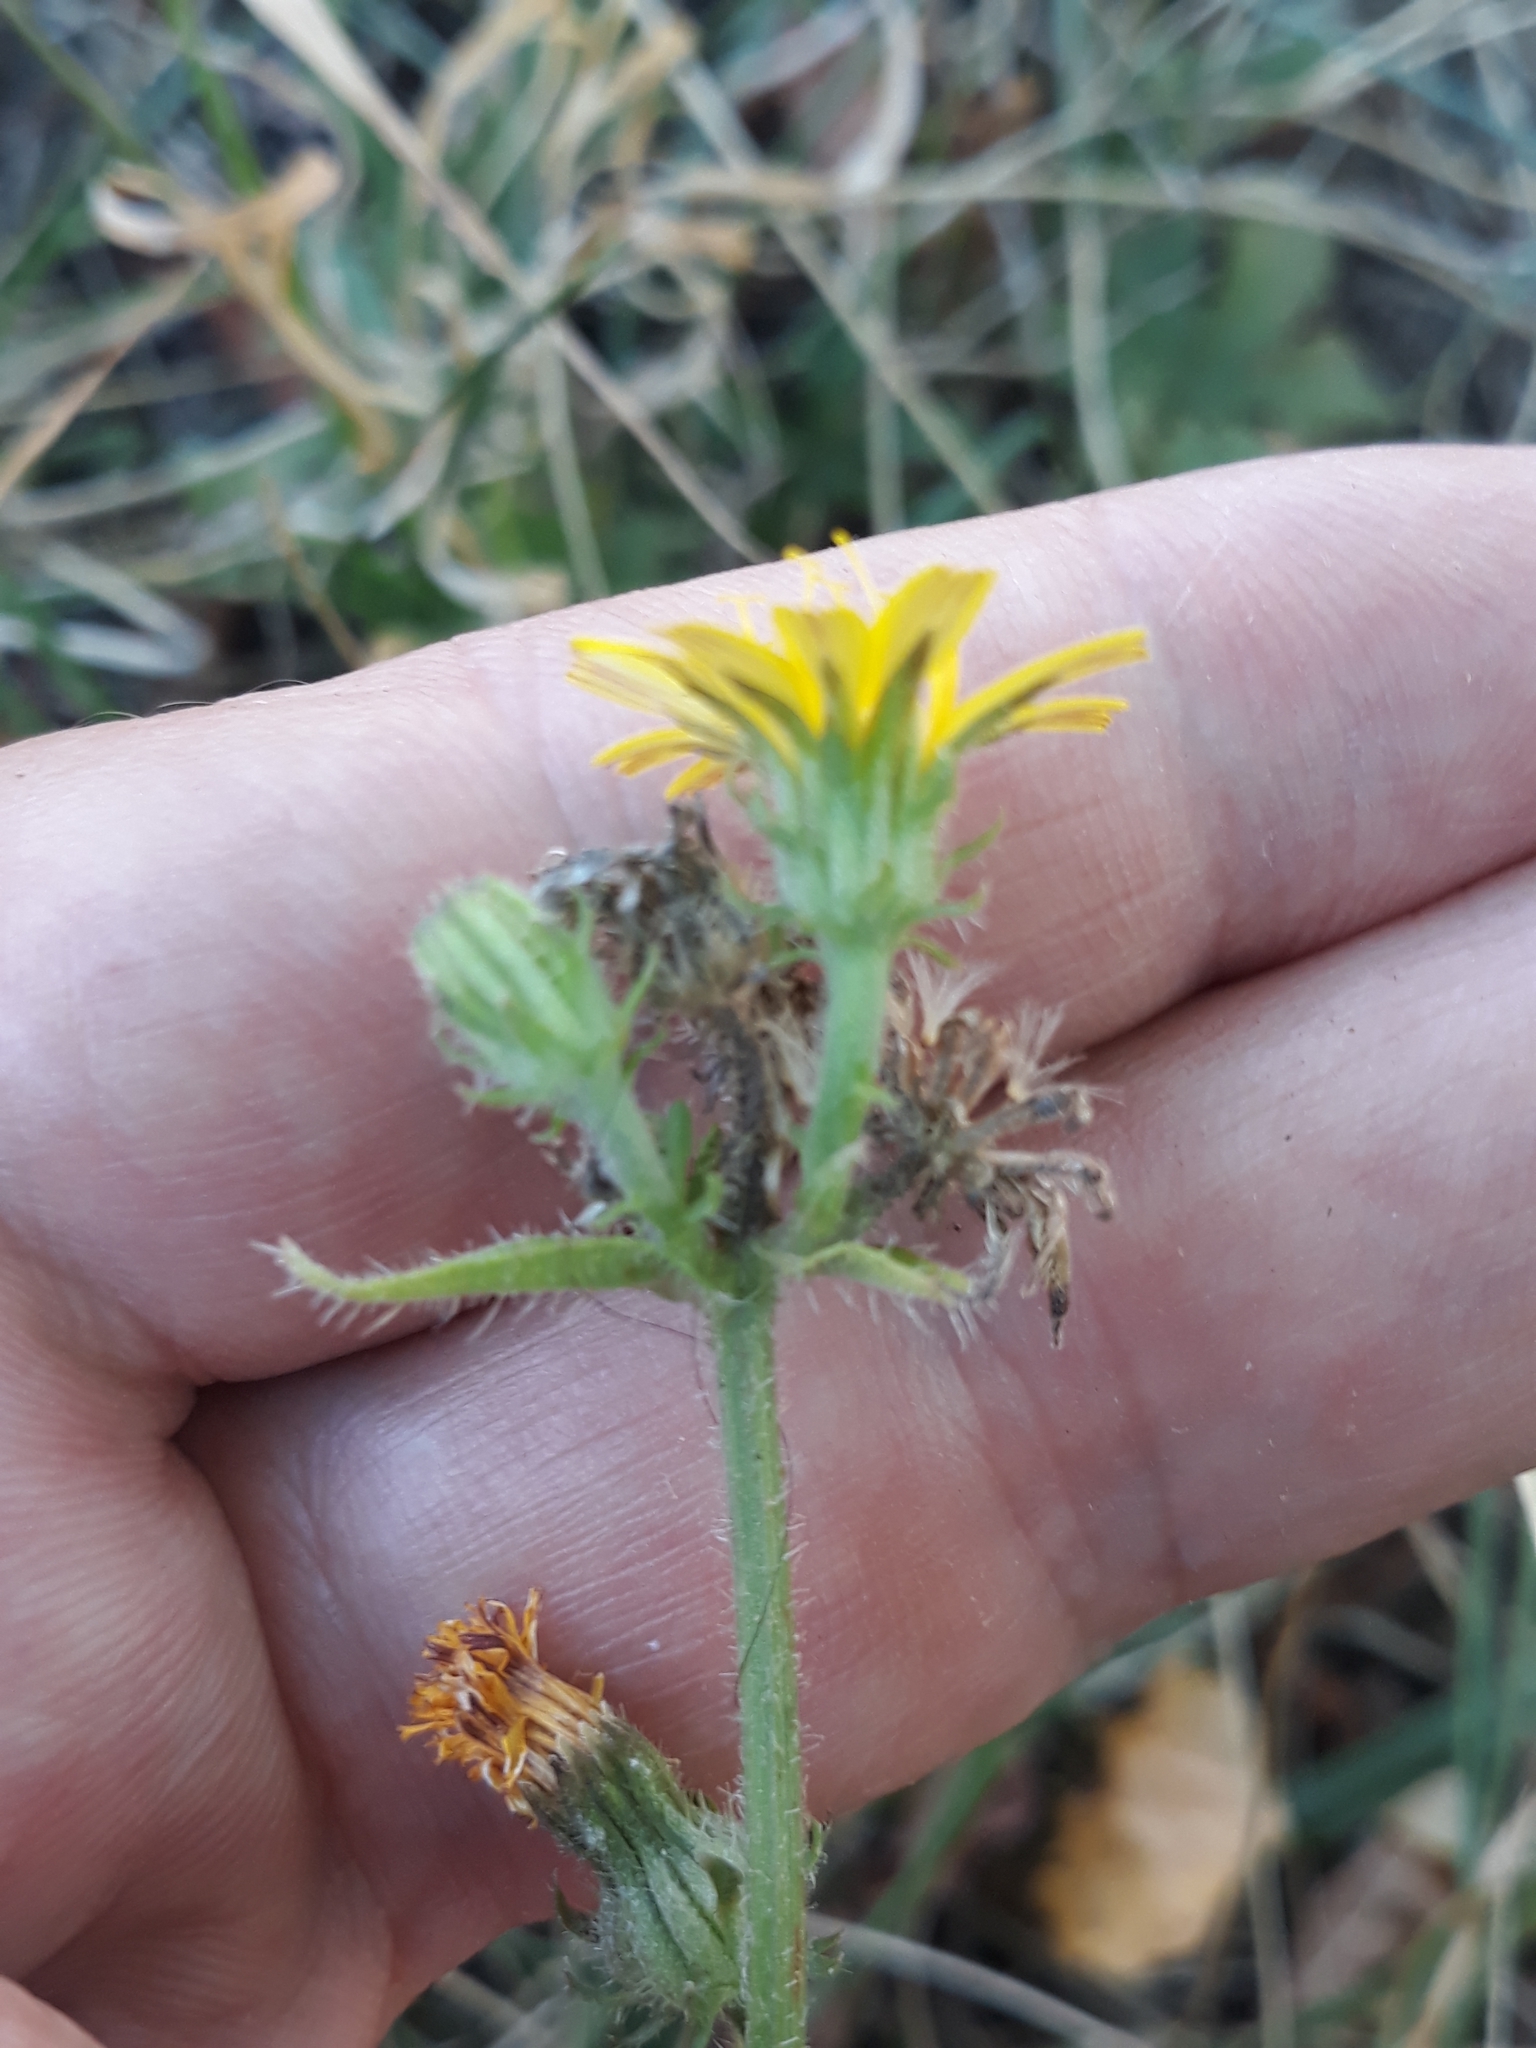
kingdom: Plantae
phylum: Tracheophyta
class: Magnoliopsida
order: Asterales
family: Asteraceae
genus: Picris
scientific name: Picris hieracioides
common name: Hawkweed oxtongue
